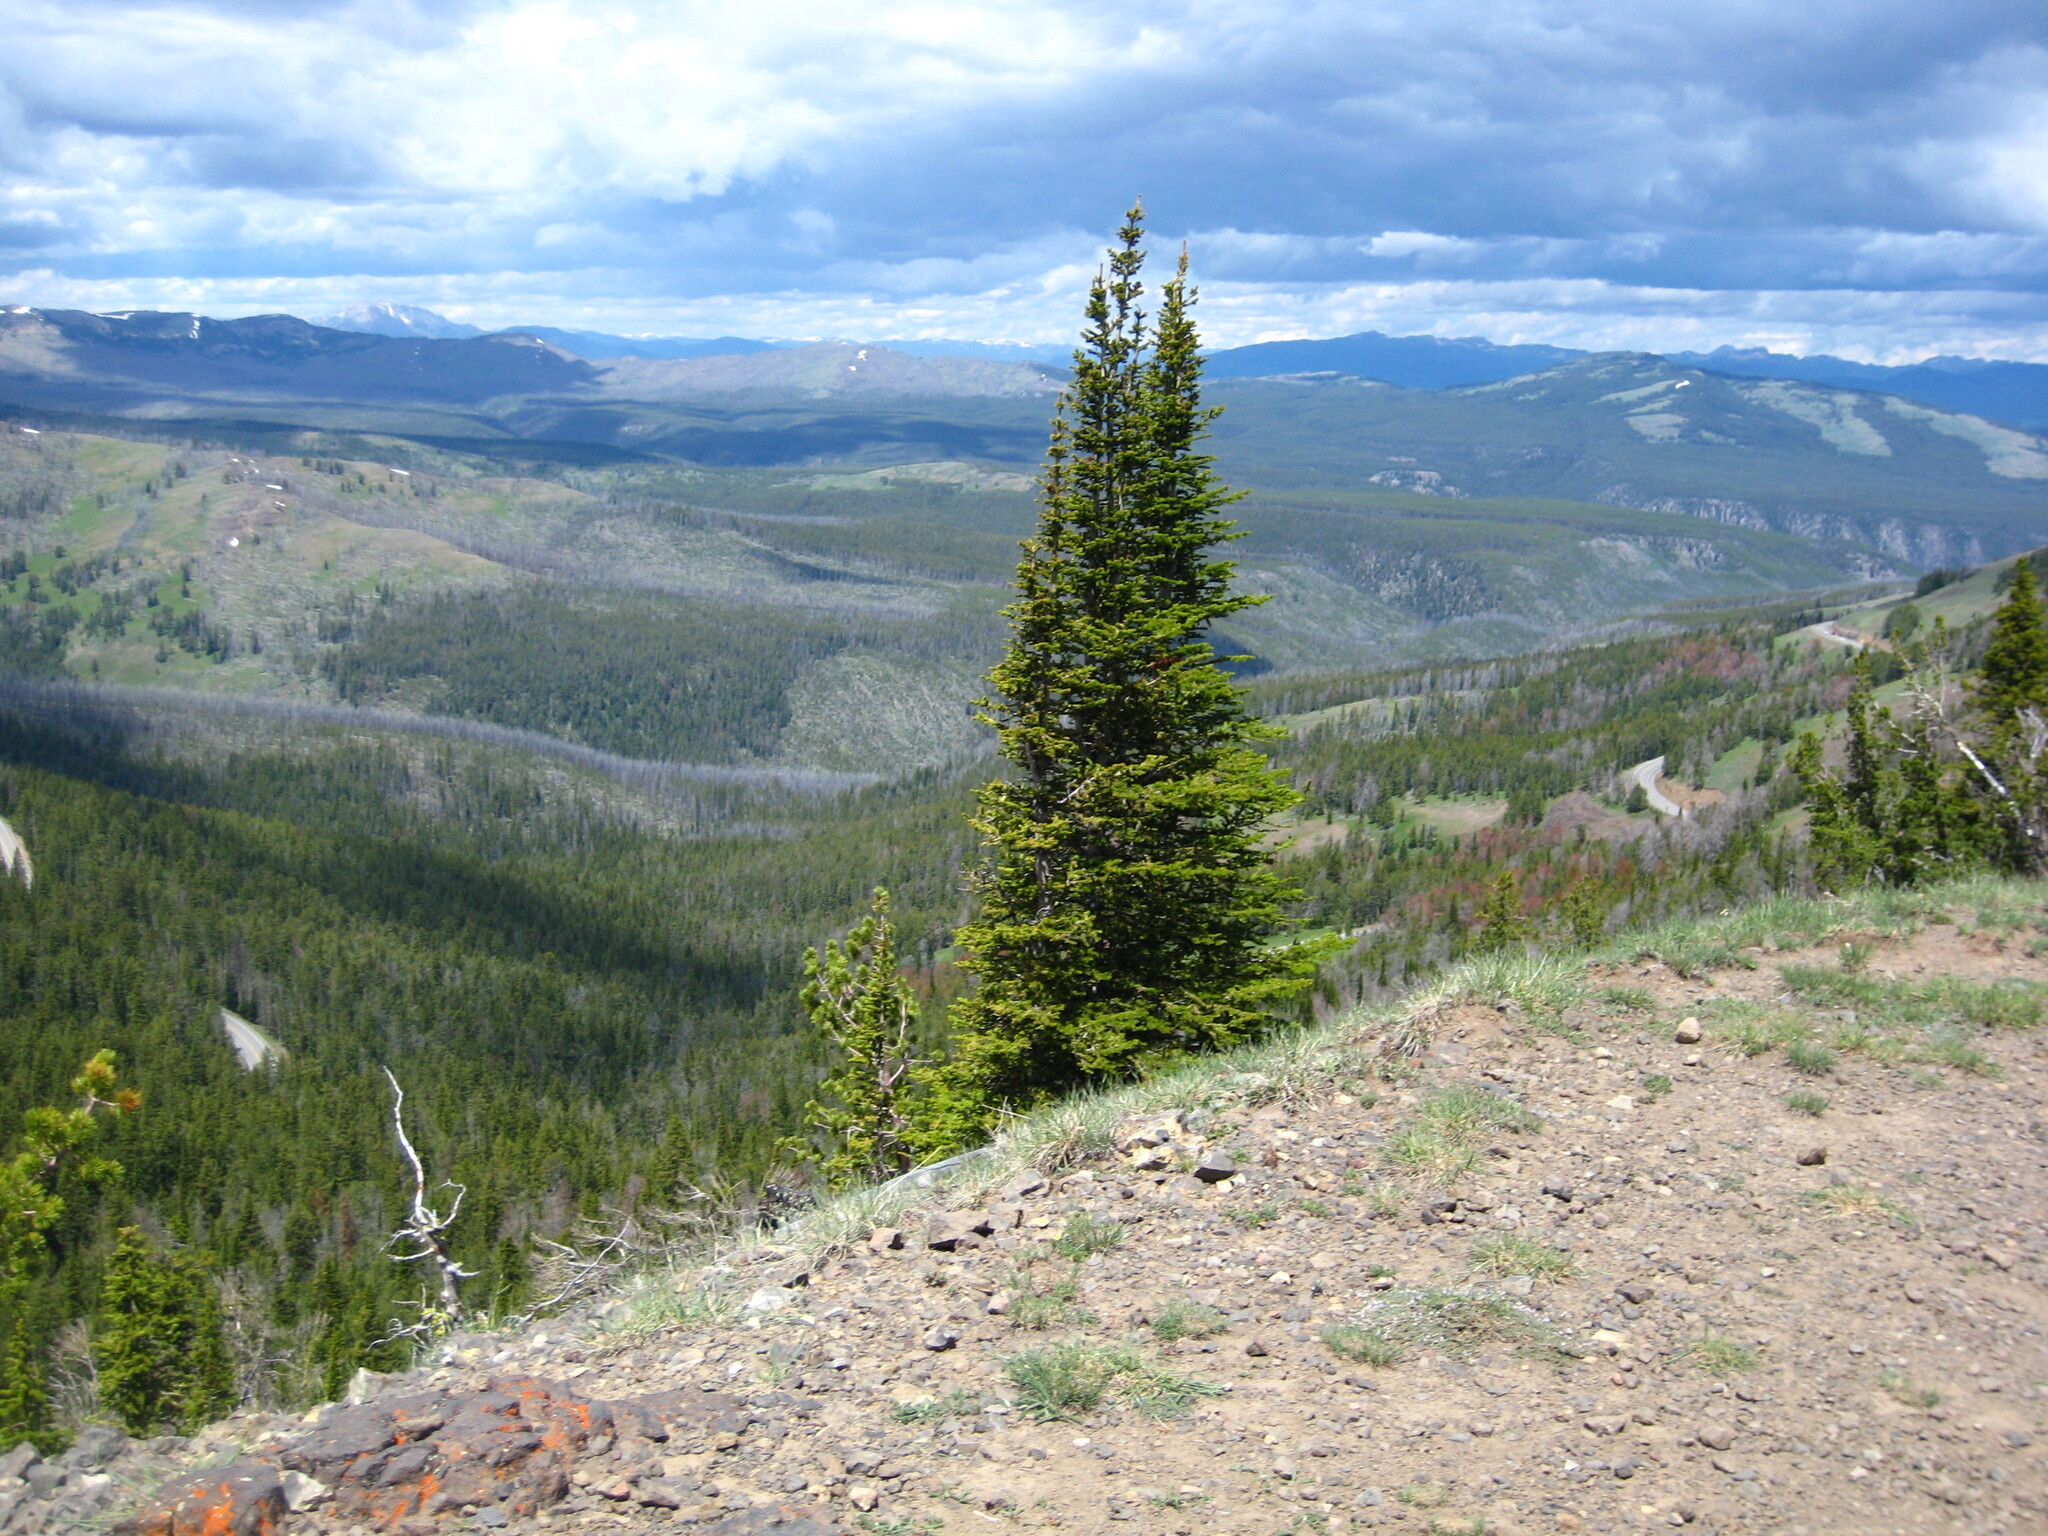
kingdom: Plantae
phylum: Tracheophyta
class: Pinopsida
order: Pinales
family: Pinaceae
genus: Abies
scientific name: Abies lasiocarpa
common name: Subalpine fir
